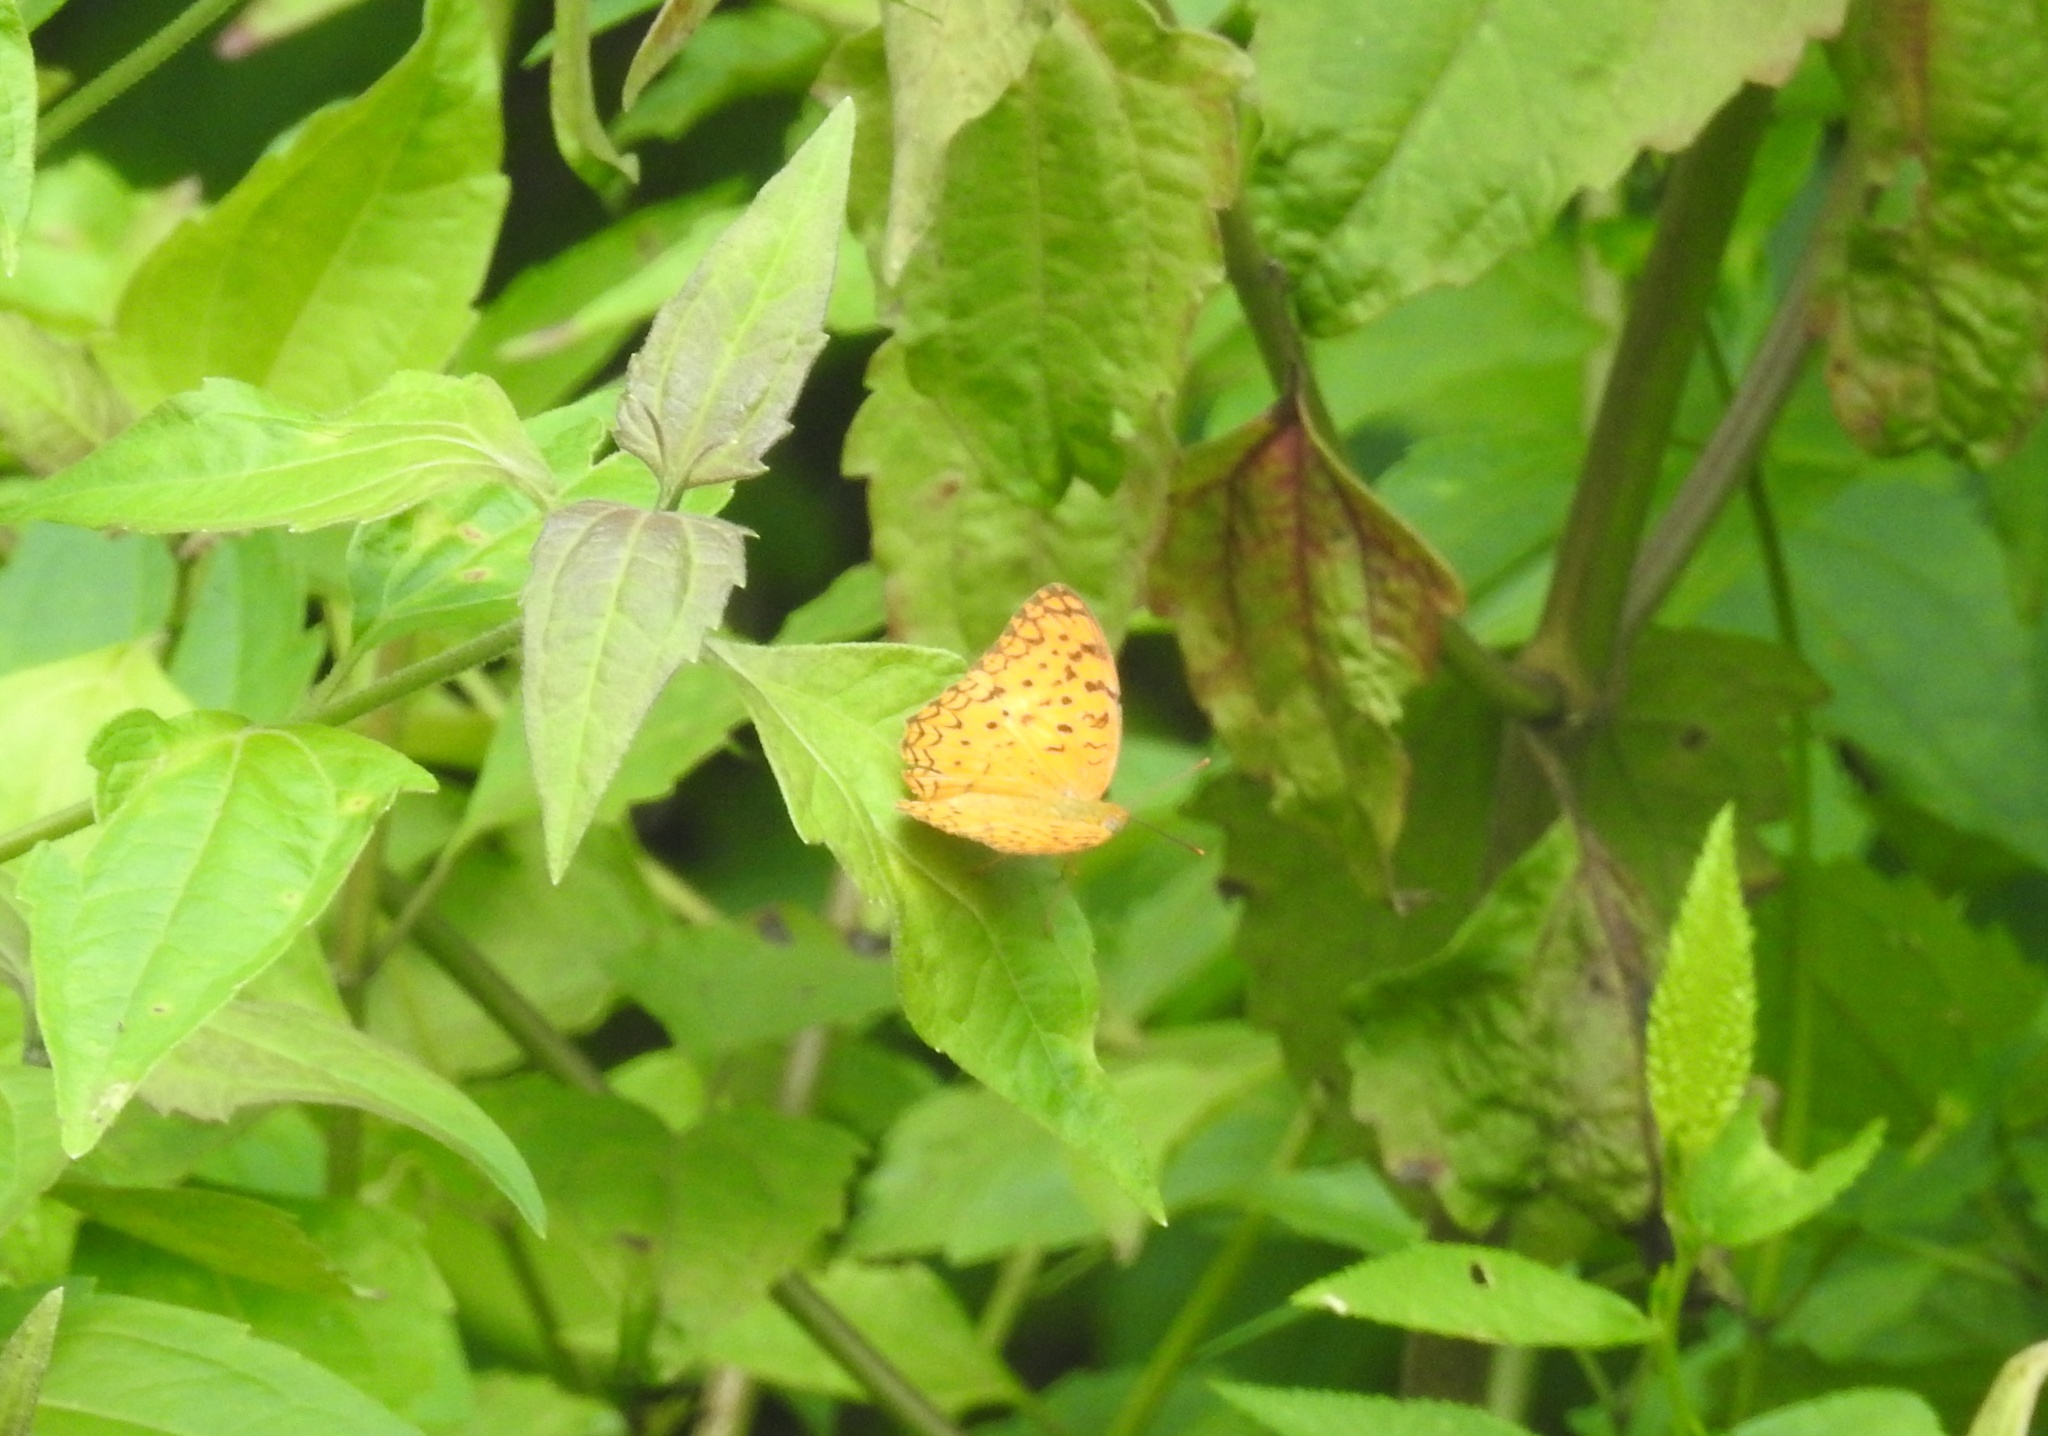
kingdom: Animalia
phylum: Arthropoda
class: Insecta
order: Lepidoptera
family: Nymphalidae
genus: Phalanta
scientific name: Phalanta phalantha
